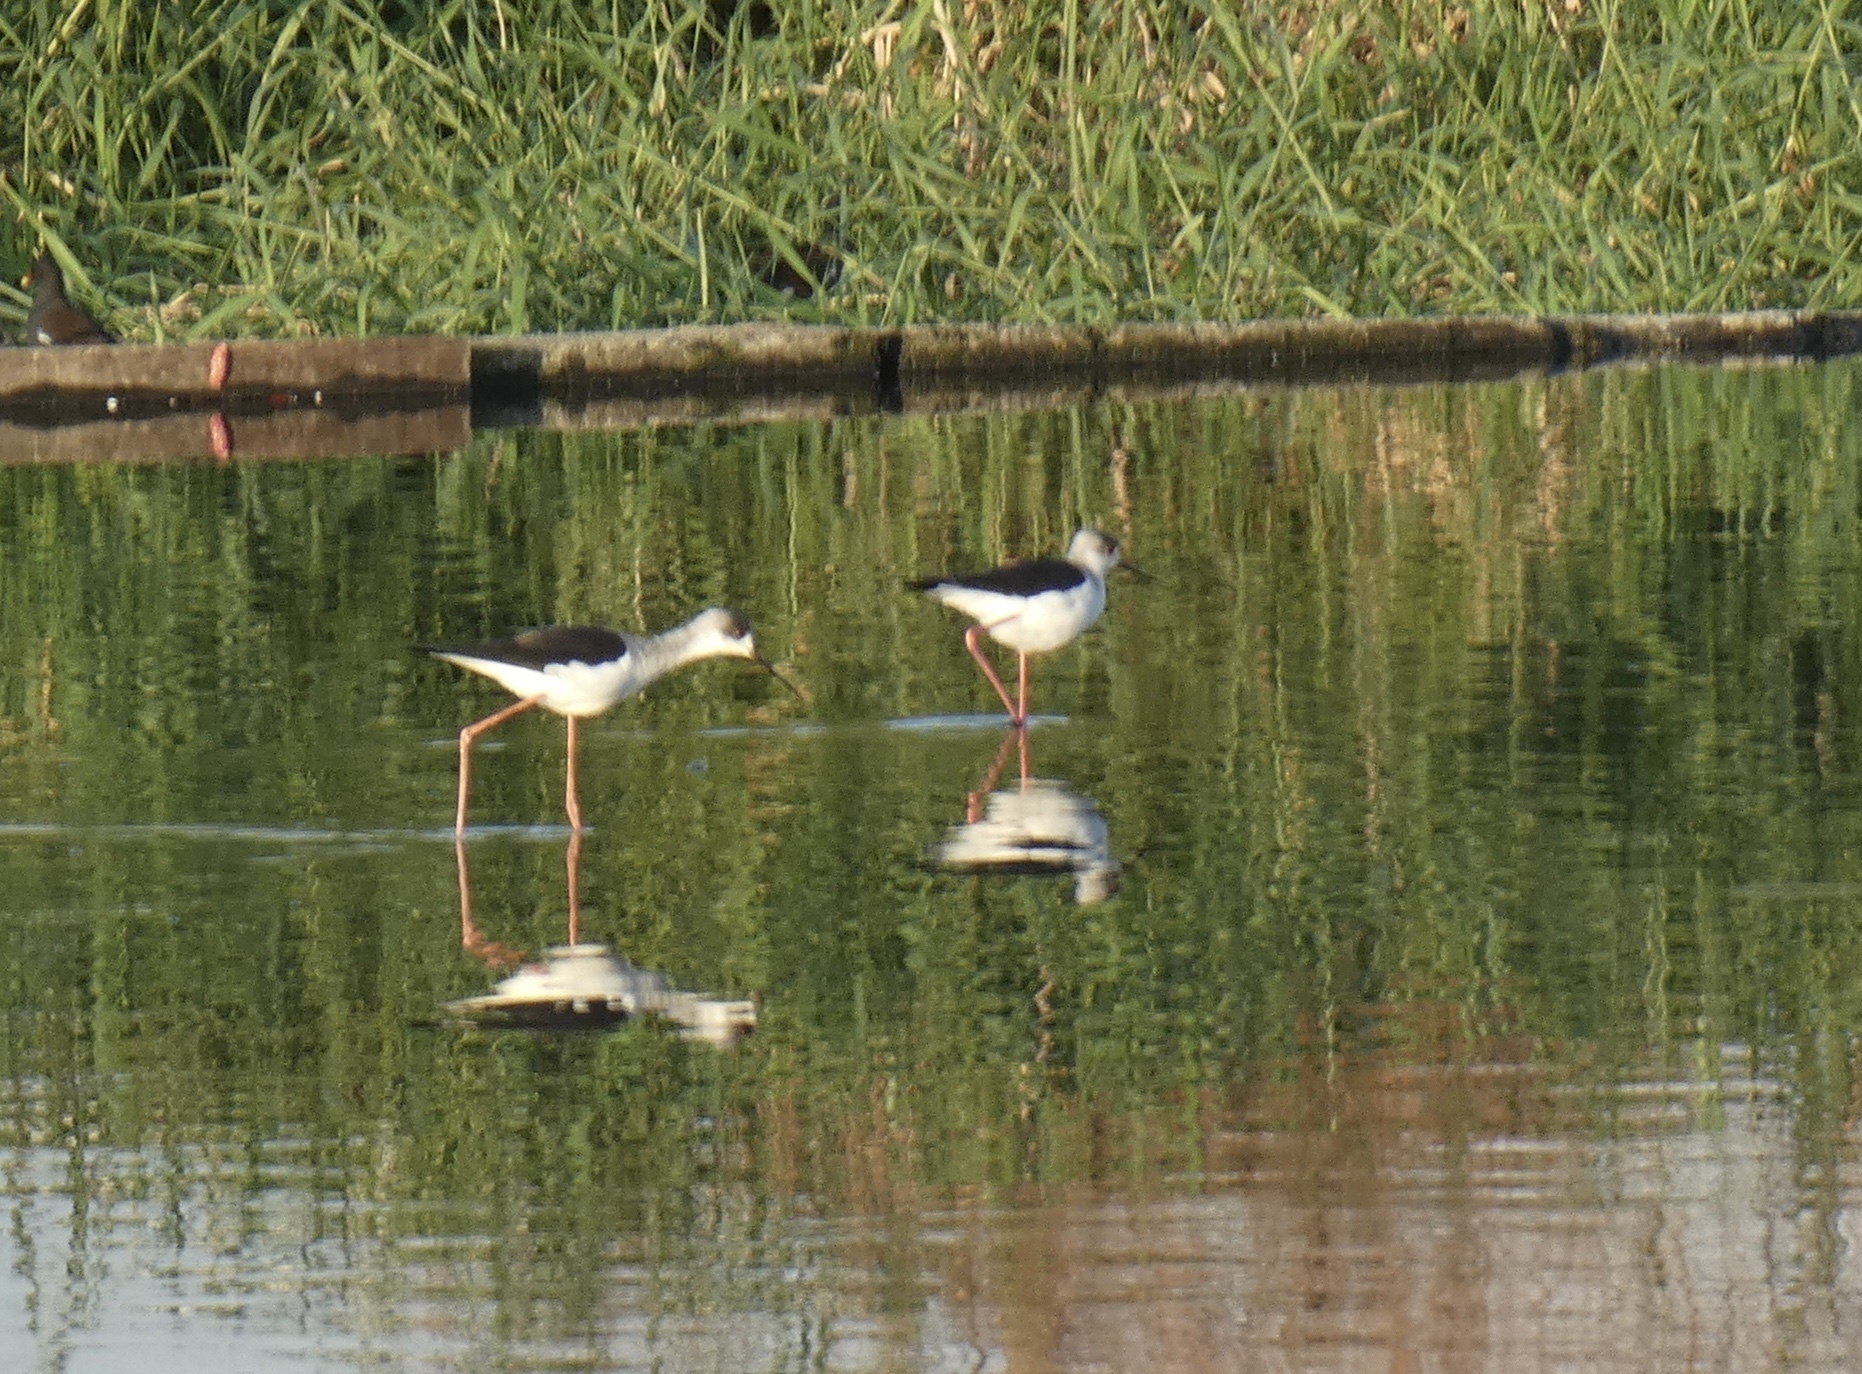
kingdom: Animalia
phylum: Chordata
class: Aves
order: Charadriiformes
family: Recurvirostridae
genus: Himantopus
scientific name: Himantopus himantopus
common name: Black-winged stilt
